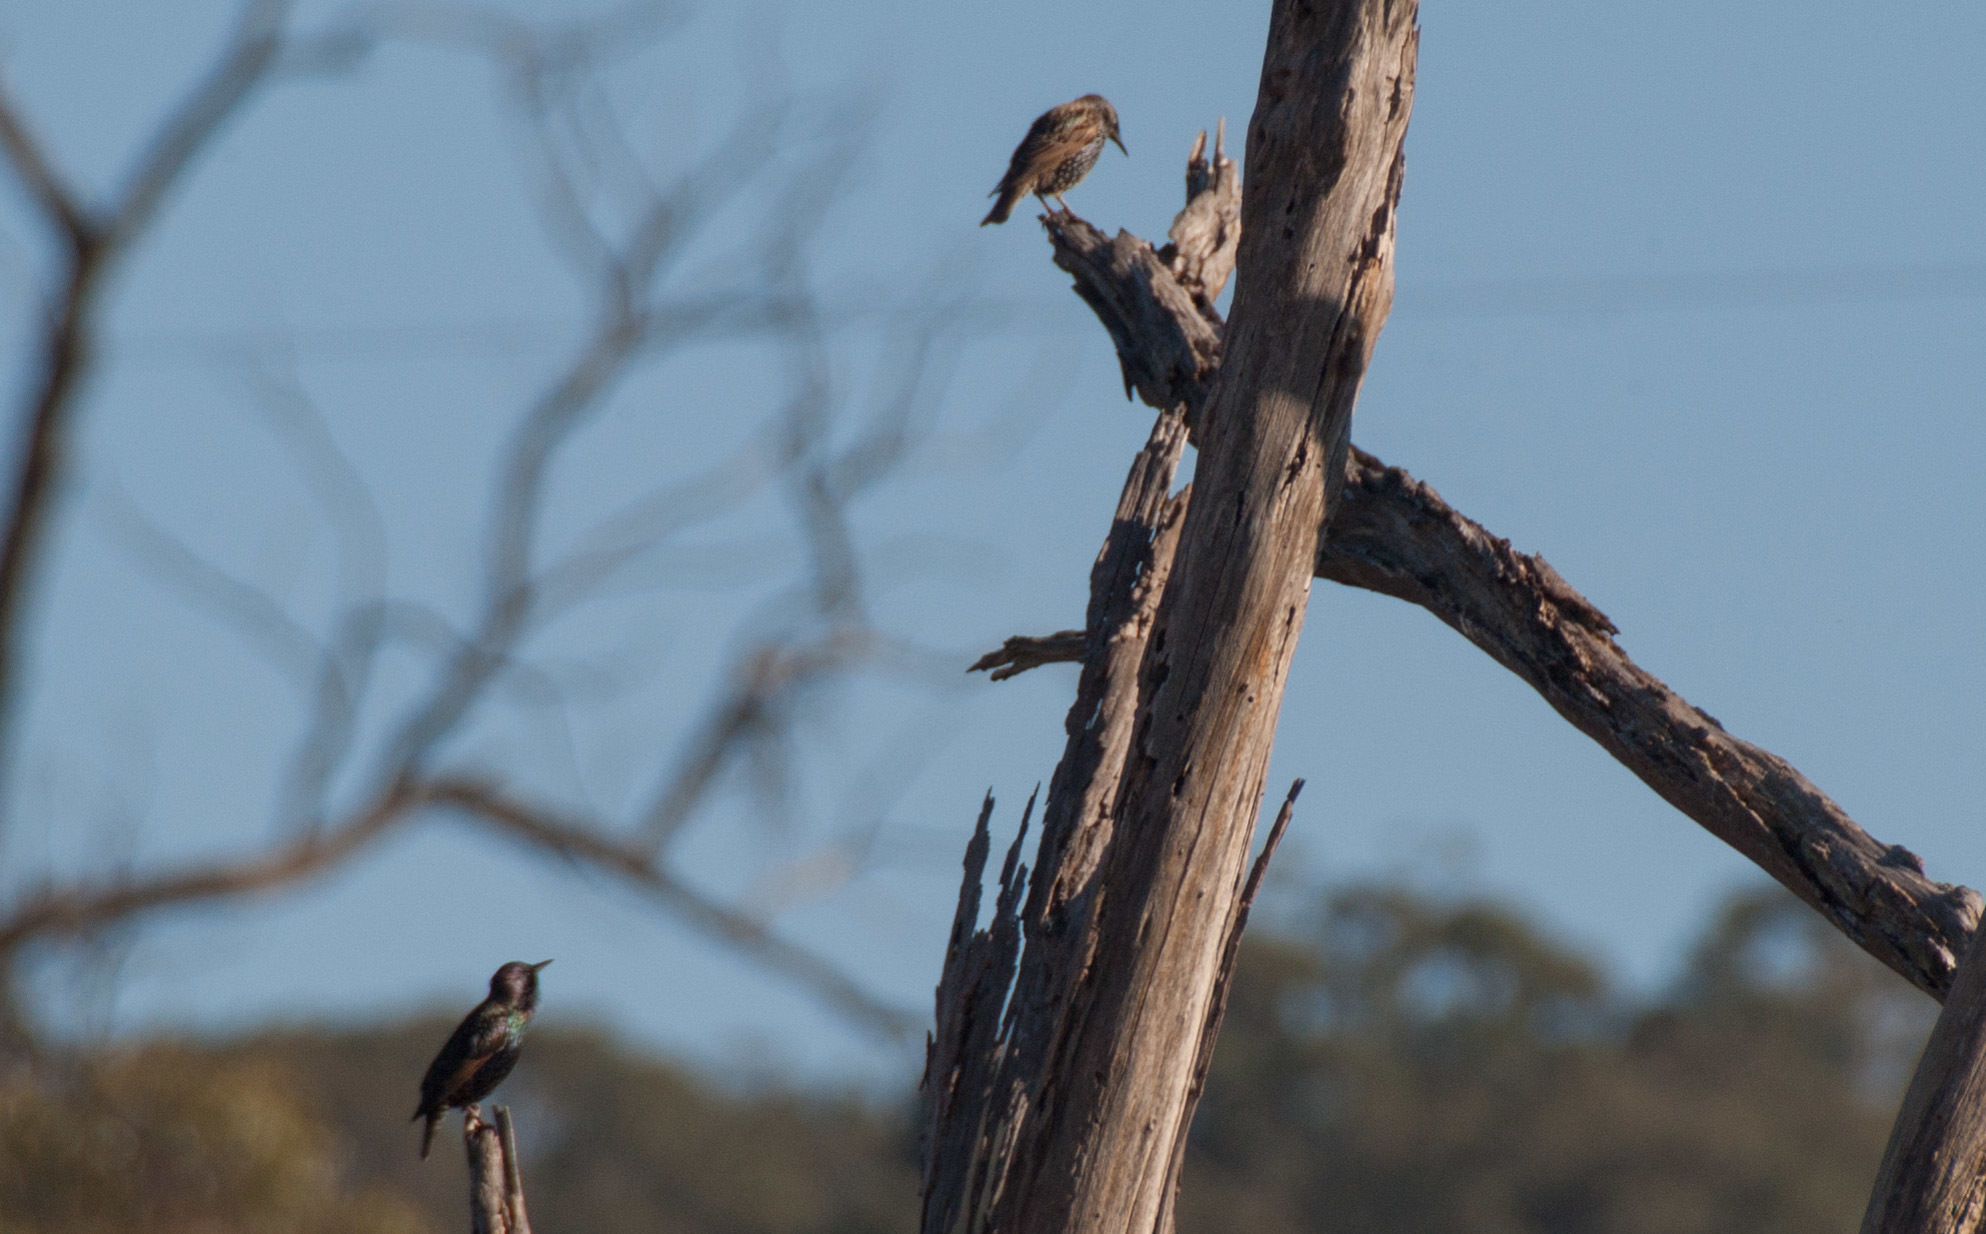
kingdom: Animalia
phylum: Chordata
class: Aves
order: Passeriformes
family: Sturnidae
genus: Sturnus
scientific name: Sturnus vulgaris
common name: Common starling
